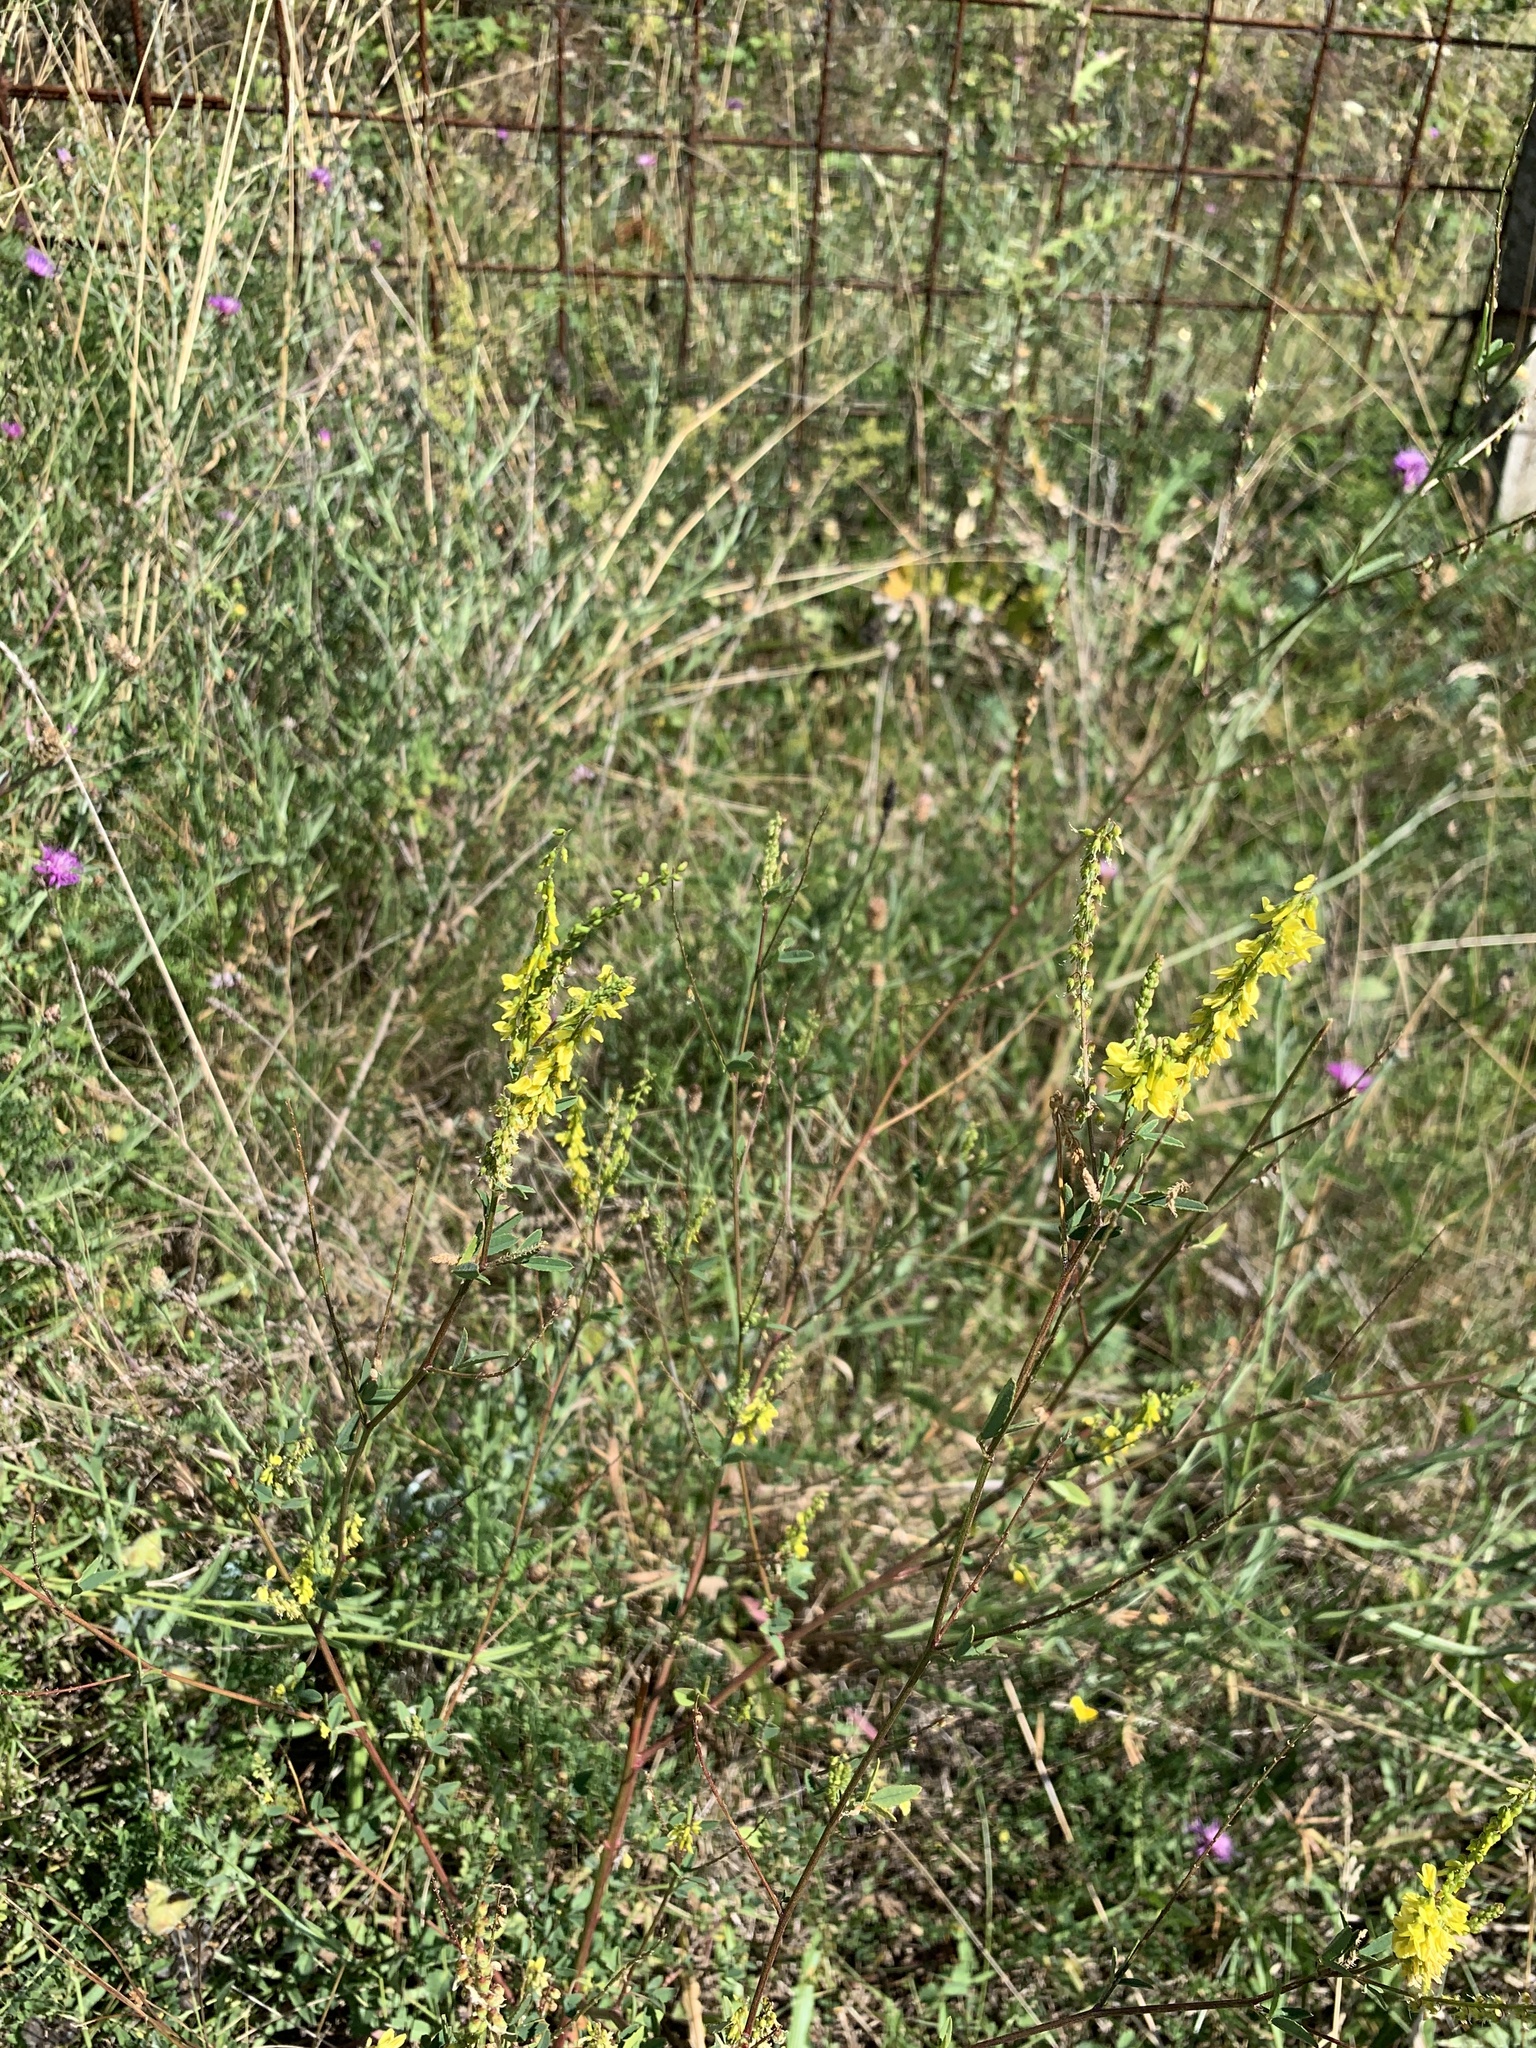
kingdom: Plantae
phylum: Tracheophyta
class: Magnoliopsida
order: Fabales
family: Fabaceae
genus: Melilotus
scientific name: Melilotus officinalis
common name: Sweetclover
